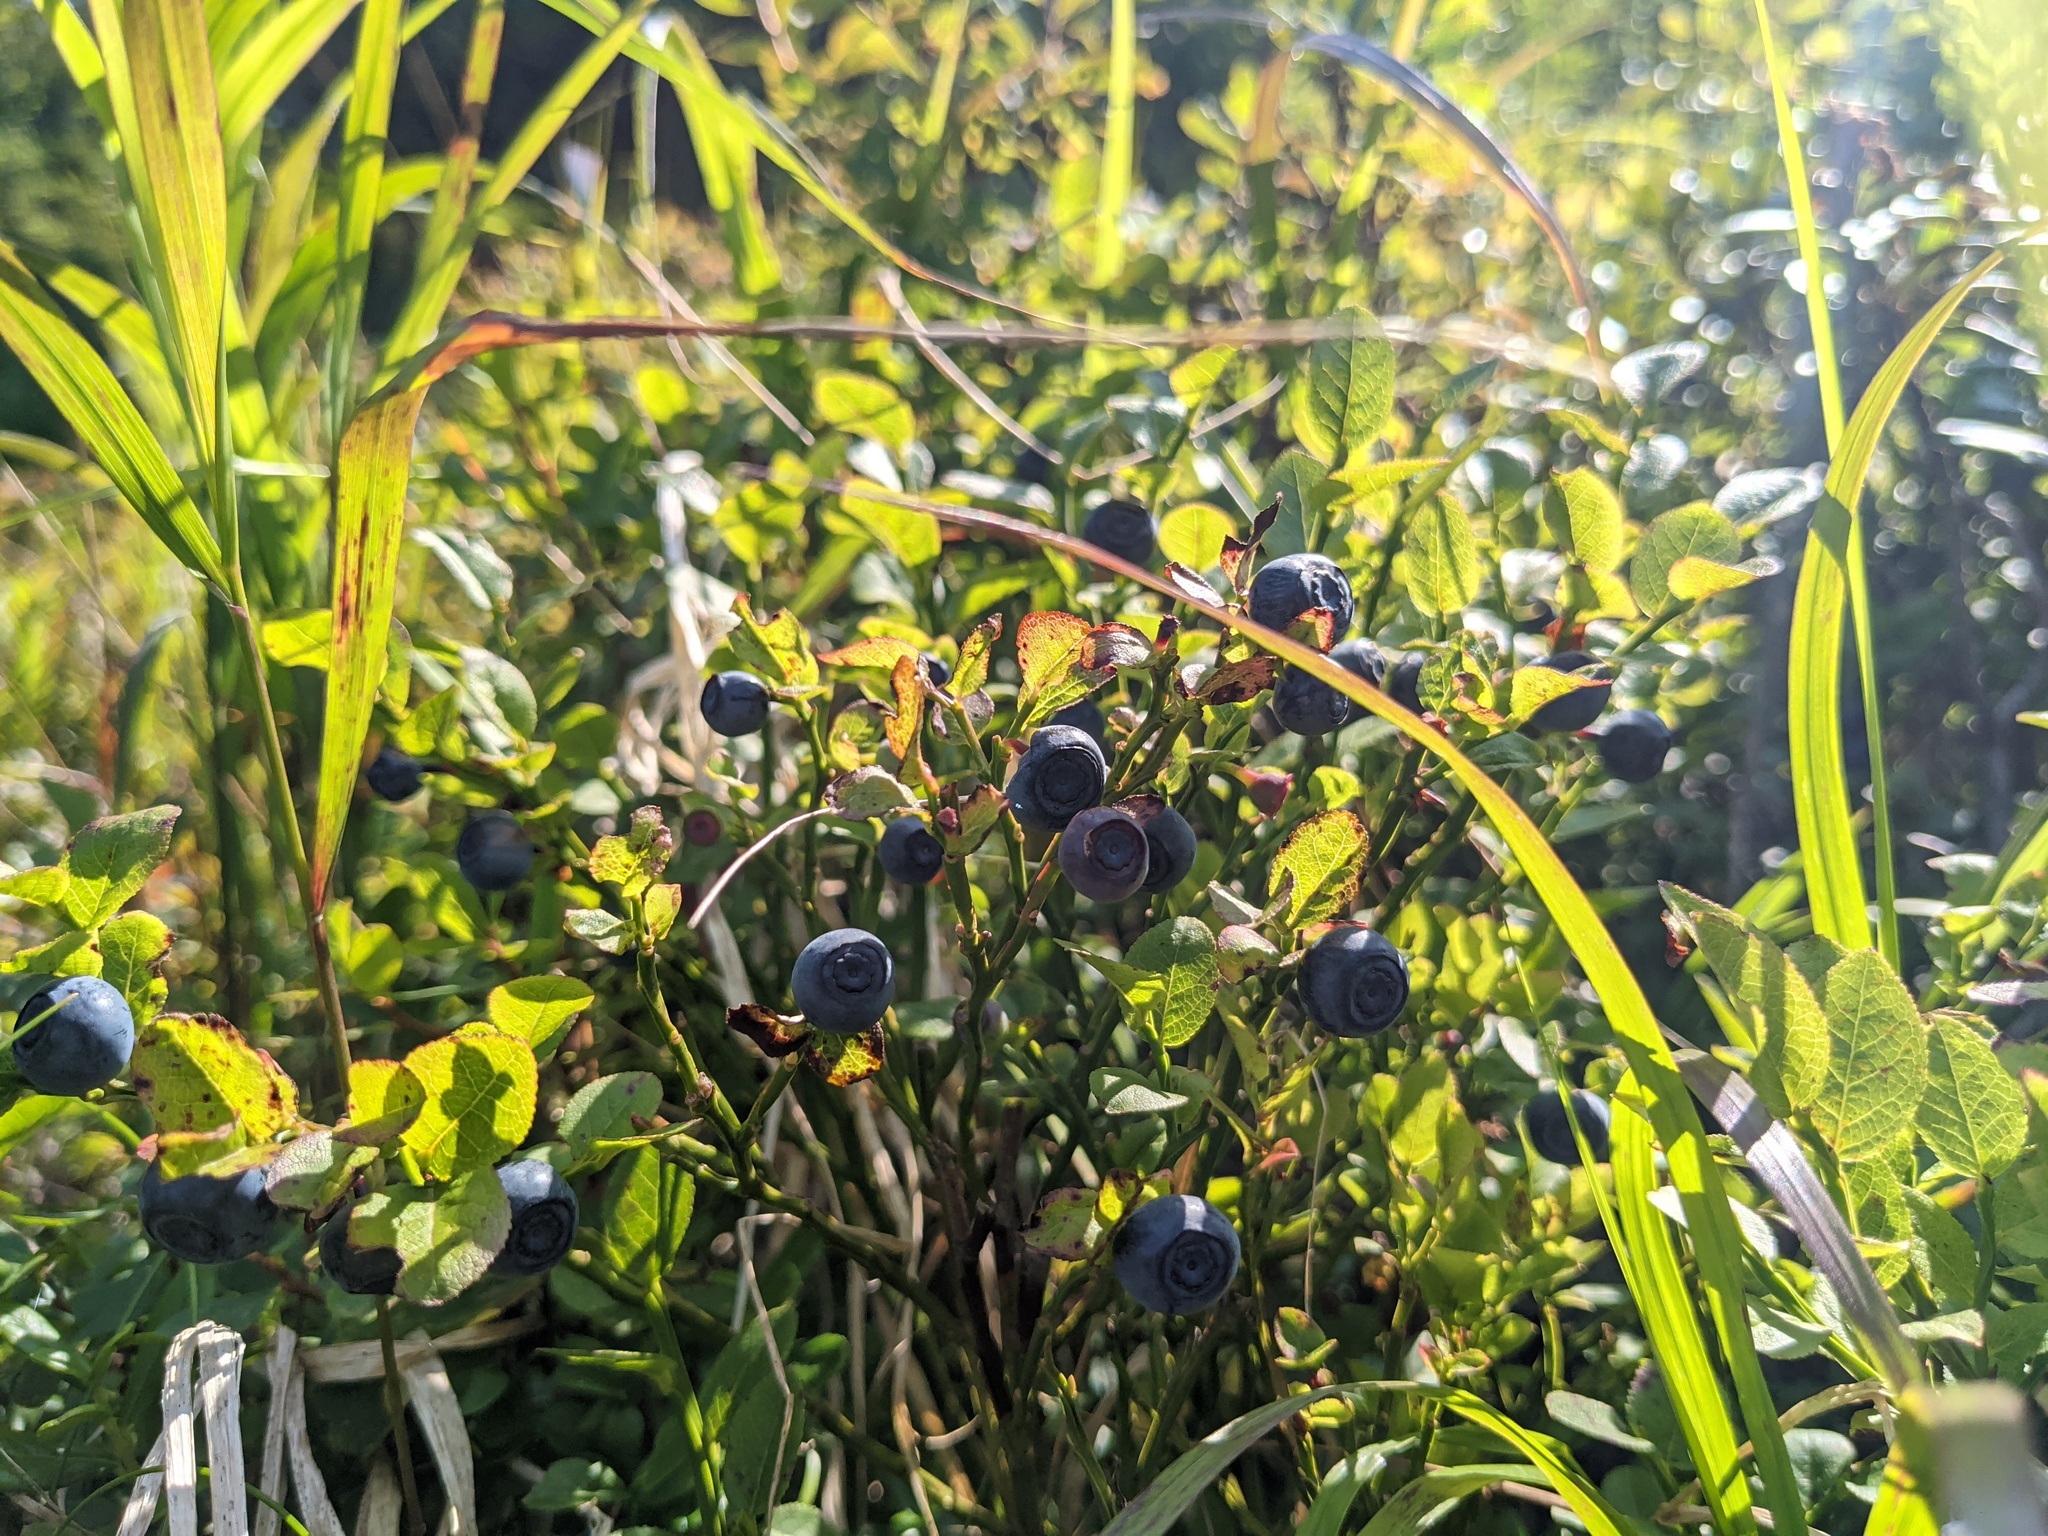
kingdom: Plantae
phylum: Tracheophyta
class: Magnoliopsida
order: Ericales
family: Ericaceae
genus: Vaccinium
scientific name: Vaccinium myrtillus
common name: Bilberry
